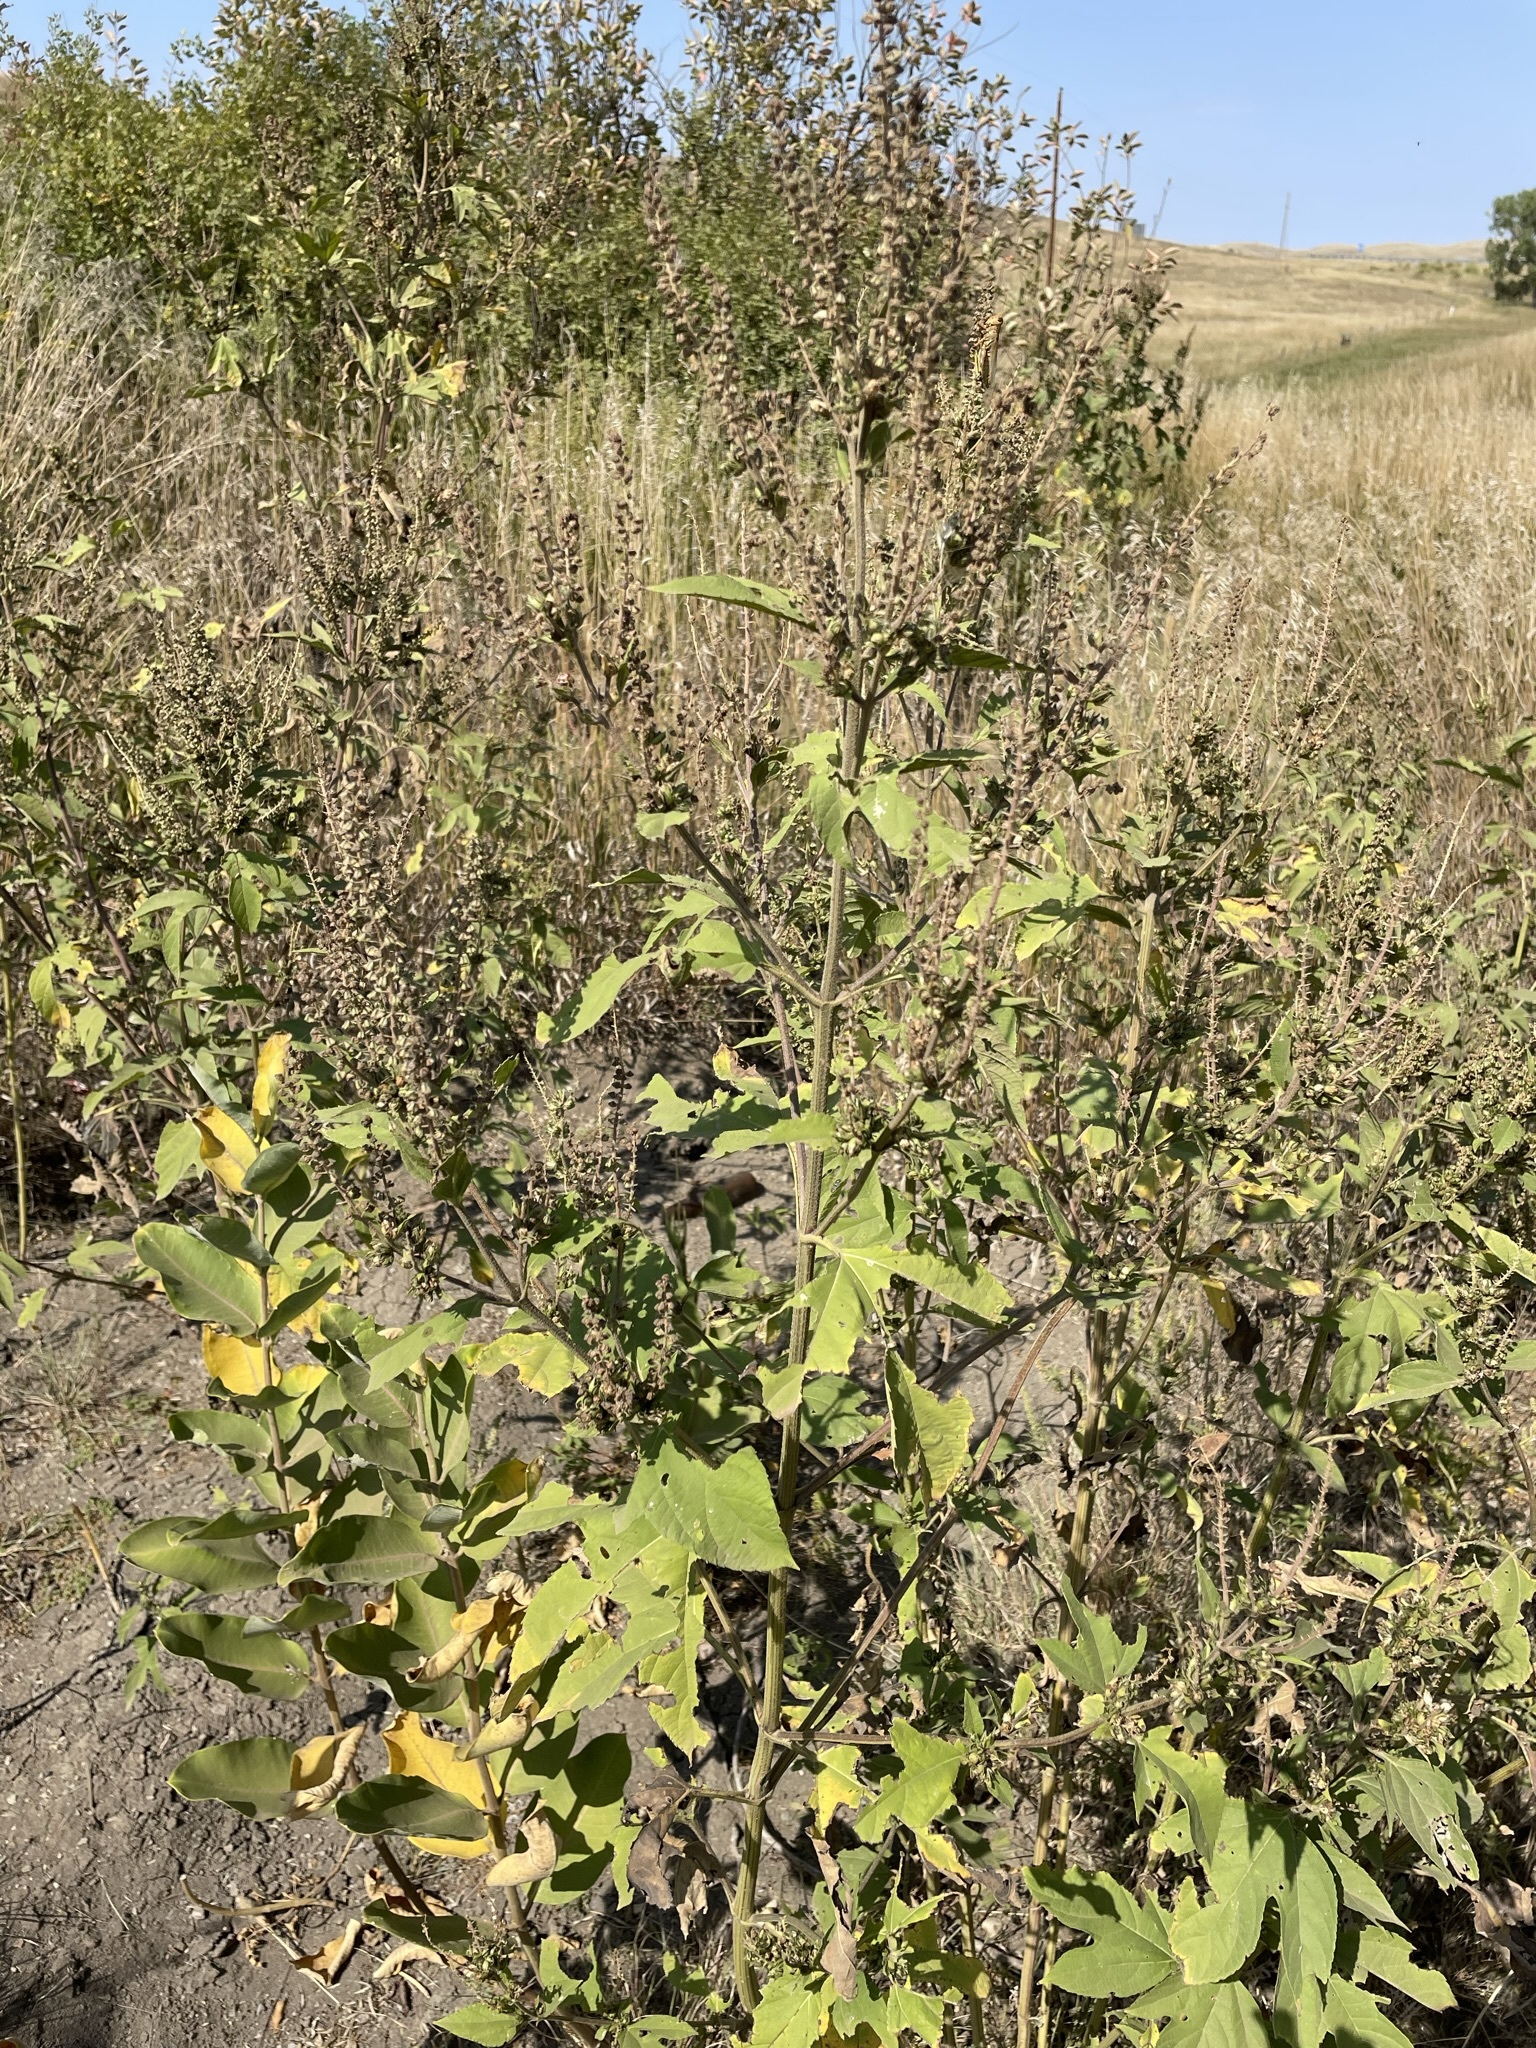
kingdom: Plantae
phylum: Tracheophyta
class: Magnoliopsida
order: Asterales
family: Asteraceae
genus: Ambrosia
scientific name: Ambrosia trifida
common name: Giant ragweed
